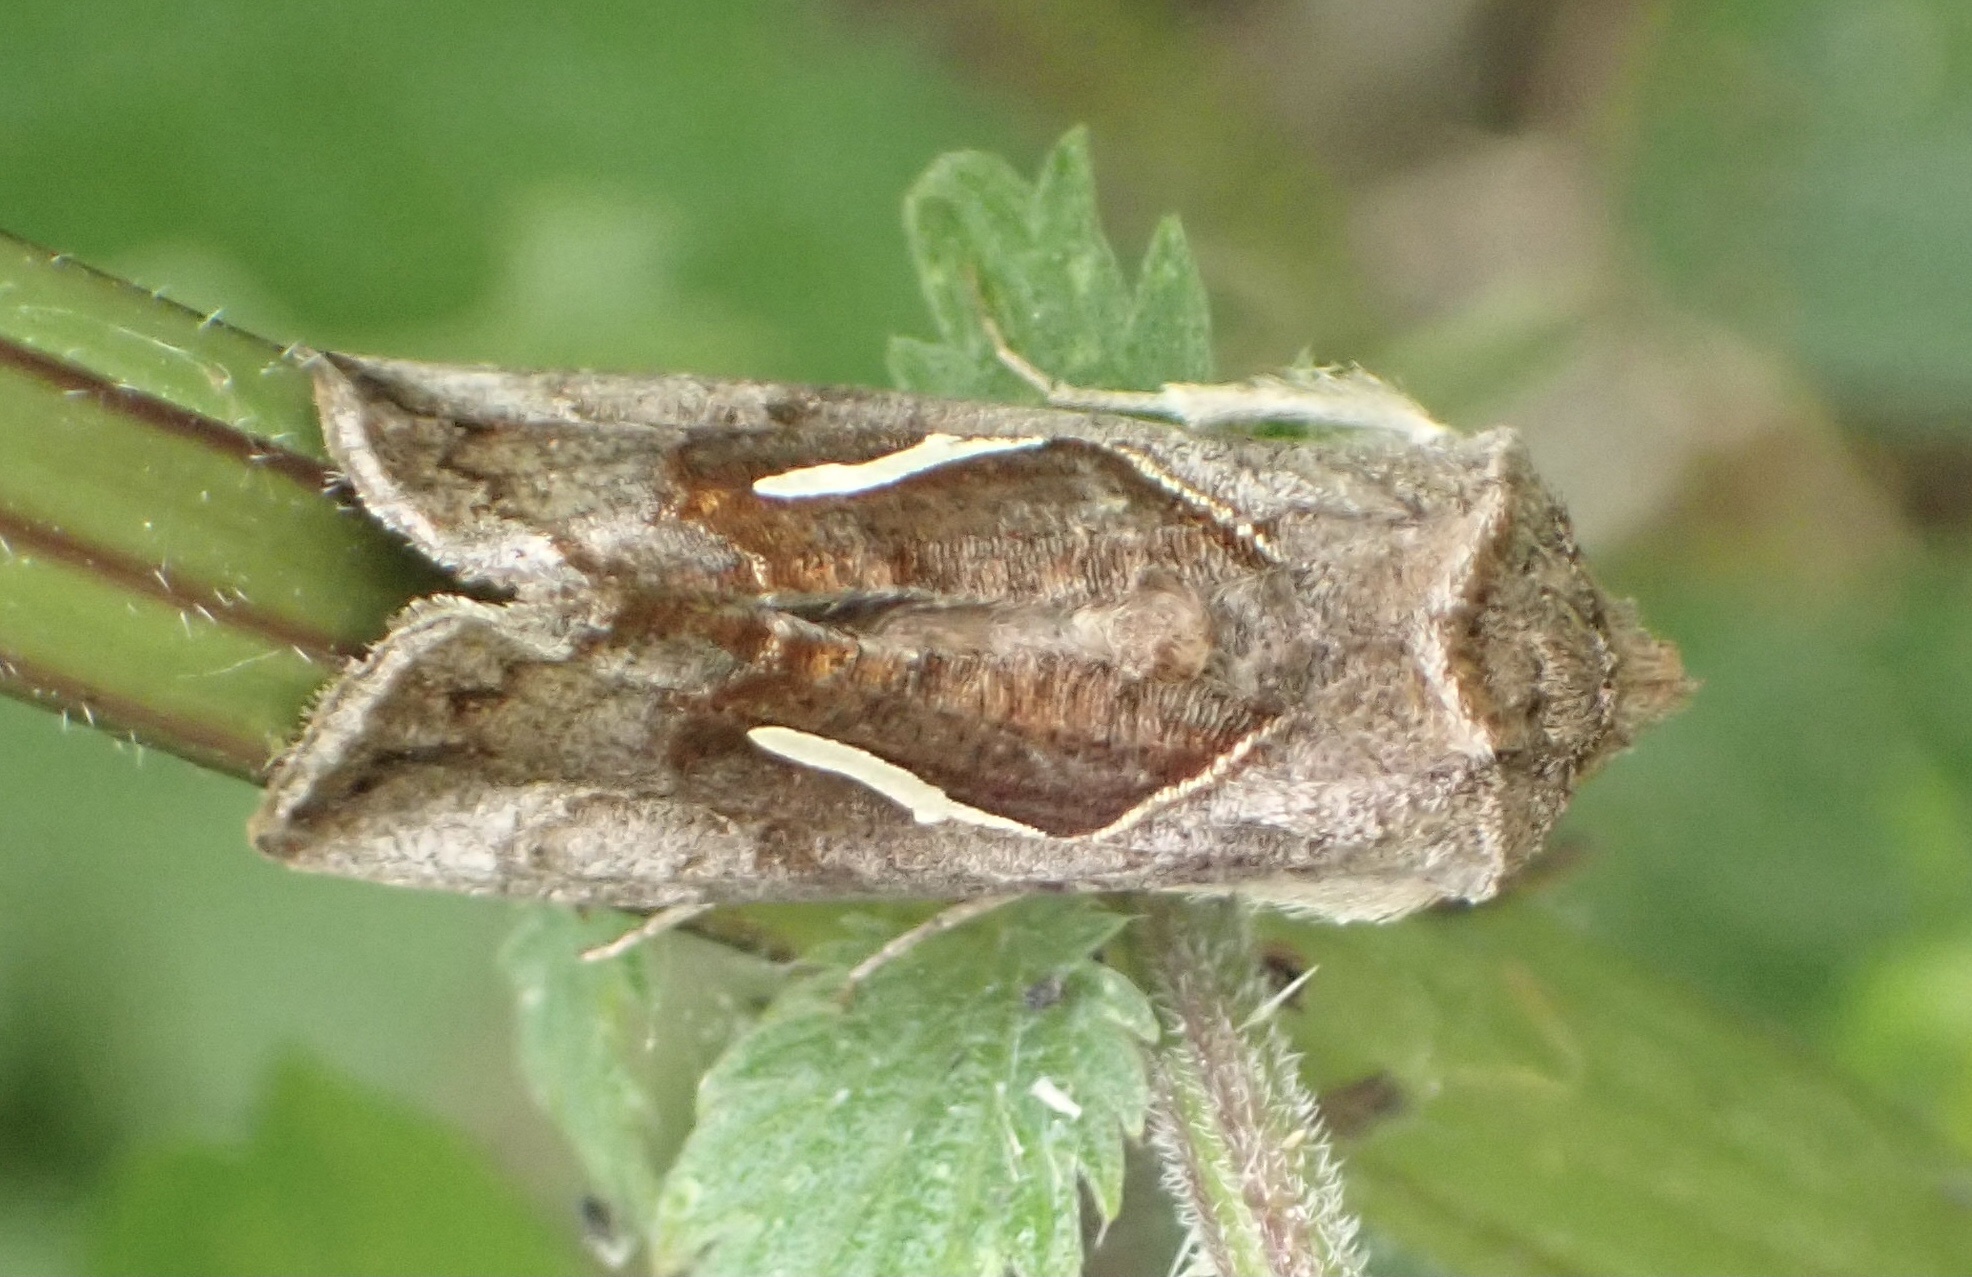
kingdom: Animalia
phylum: Arthropoda
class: Insecta
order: Lepidoptera
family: Noctuidae
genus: Macdunnoughia
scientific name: Macdunnoughia confusa
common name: Dewick's plusia
